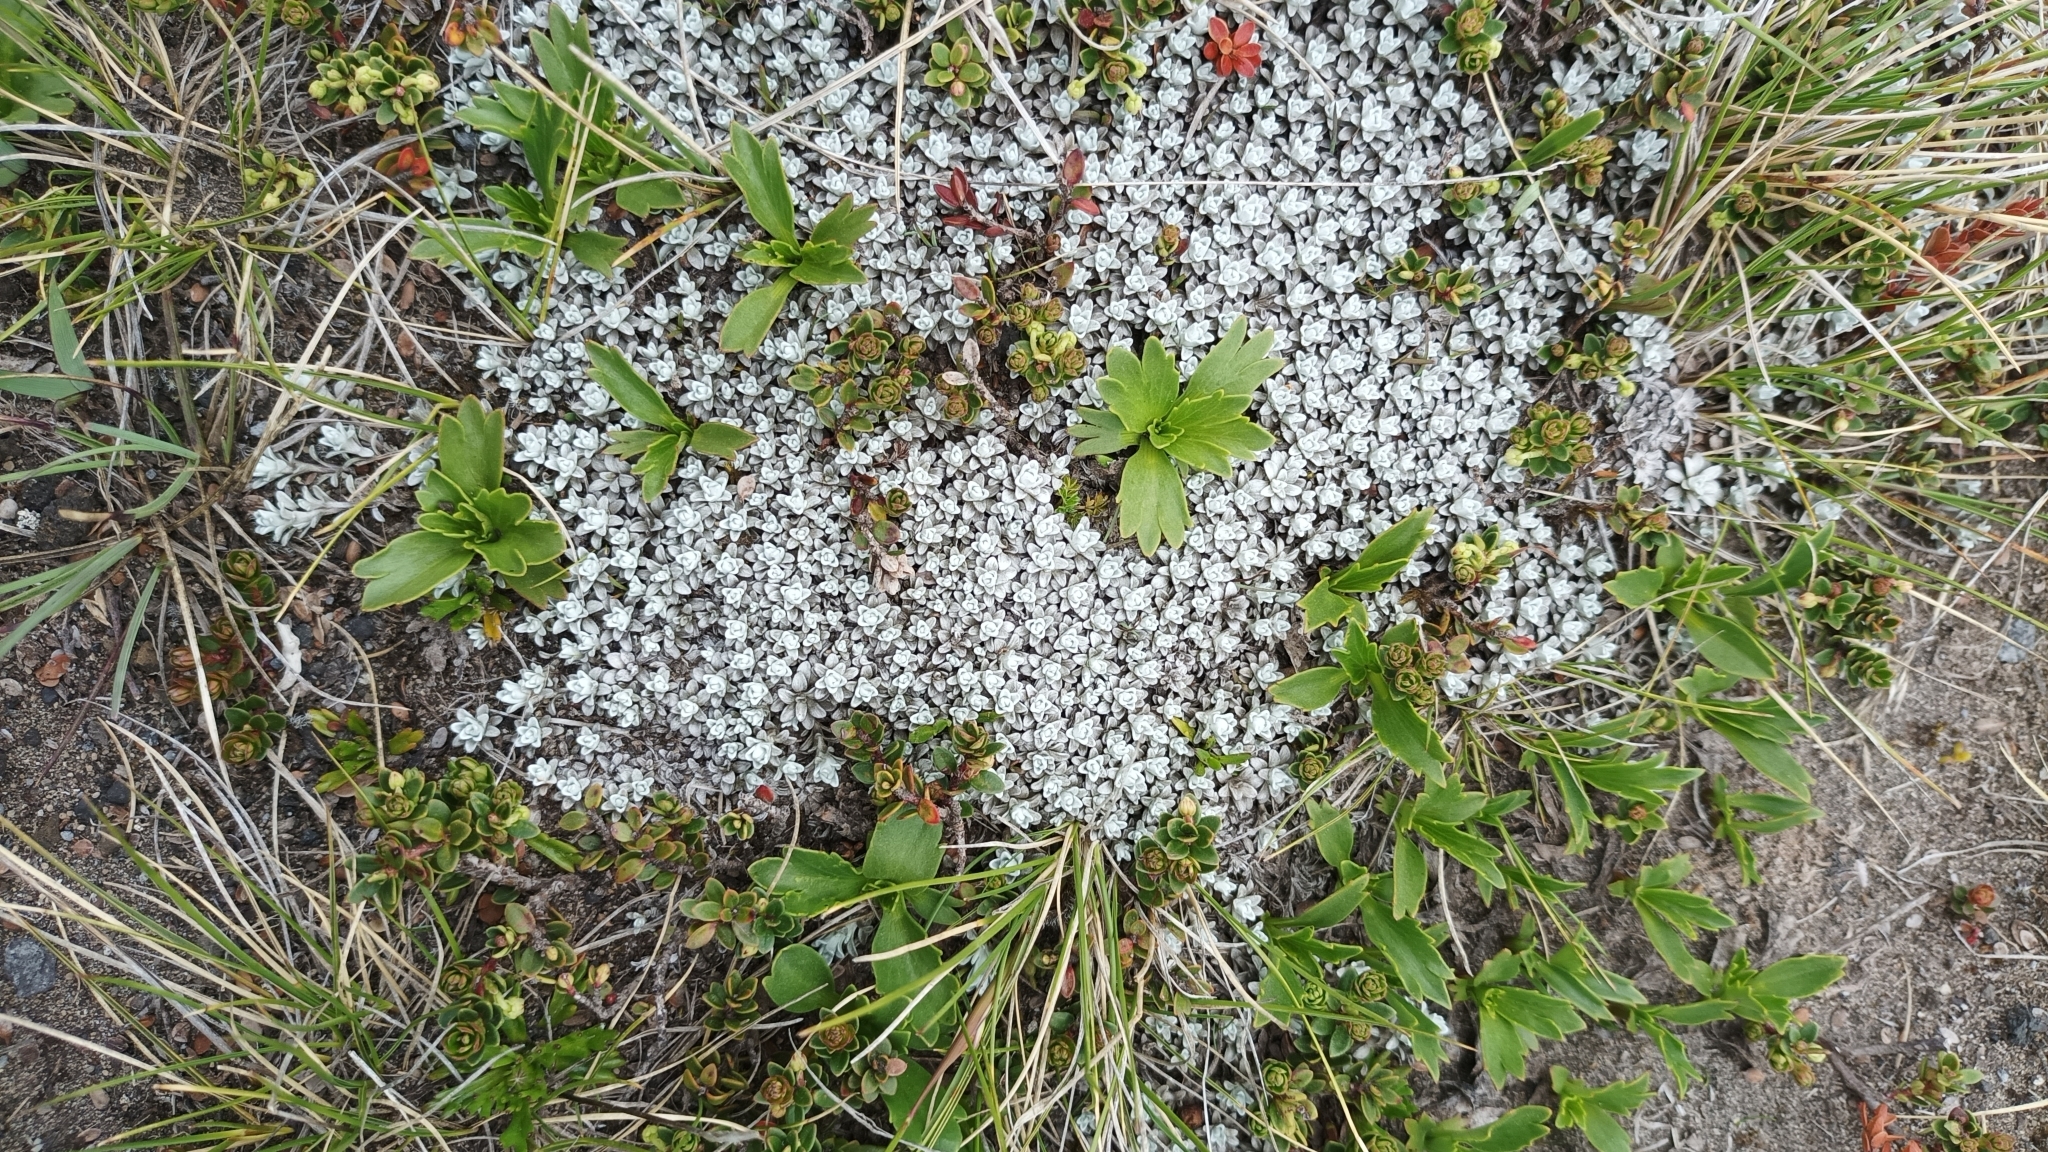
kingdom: Plantae
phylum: Tracheophyta
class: Magnoliopsida
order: Asterales
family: Asteraceae
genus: Belloa
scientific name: Belloa nivea
